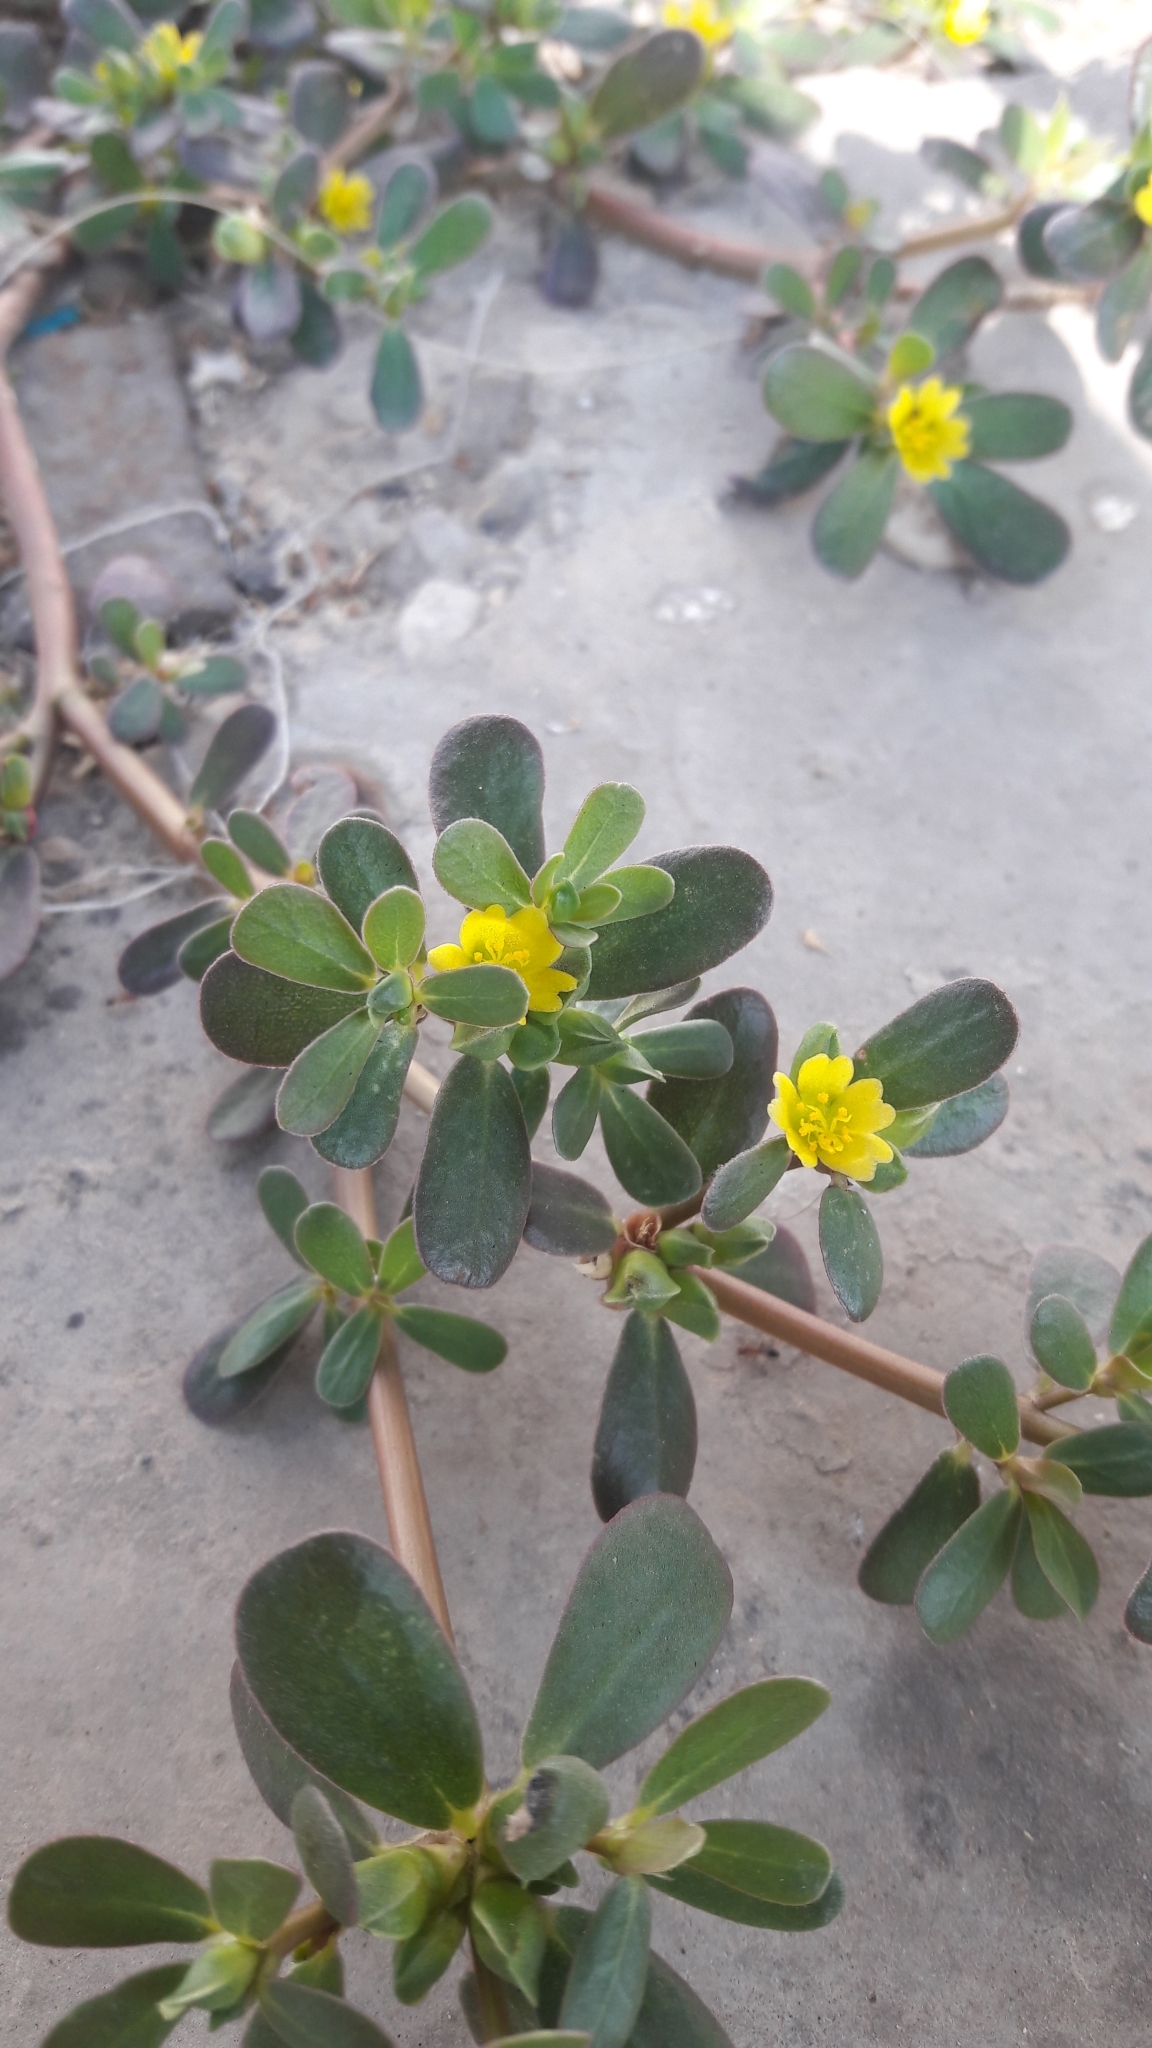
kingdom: Plantae
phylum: Tracheophyta
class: Magnoliopsida
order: Caryophyllales
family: Portulacaceae
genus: Portulaca
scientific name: Portulaca oleracea
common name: Common purslane
